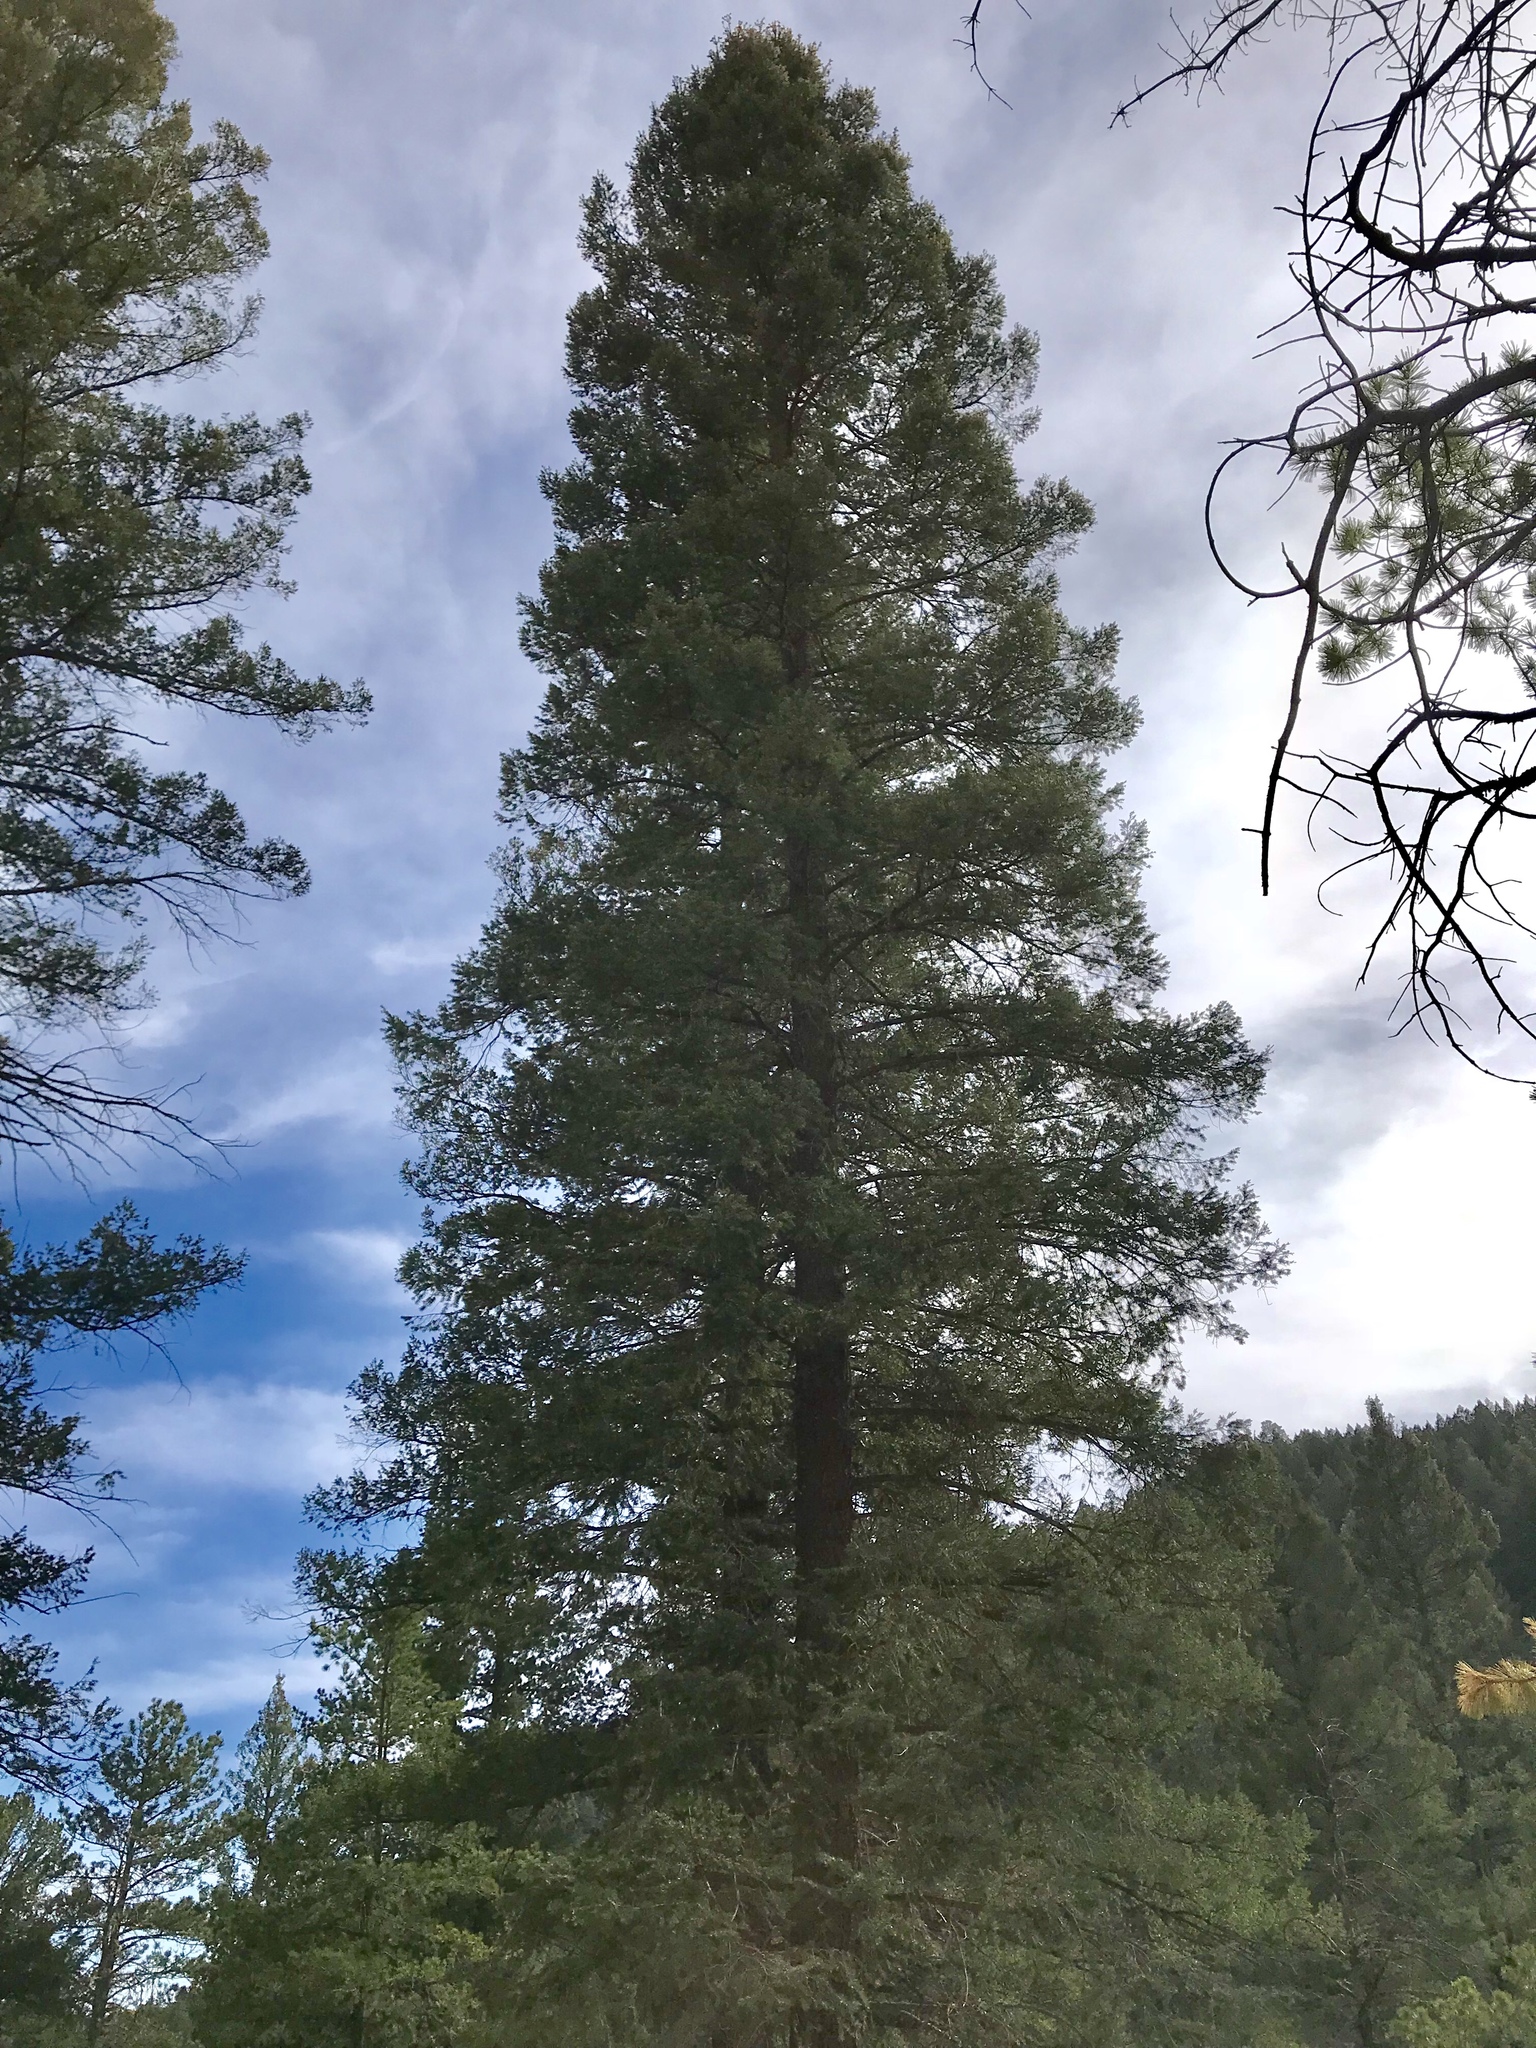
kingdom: Plantae
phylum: Tracheophyta
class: Pinopsida
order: Pinales
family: Pinaceae
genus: Pseudotsuga
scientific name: Pseudotsuga menziesii
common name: Douglas fir
